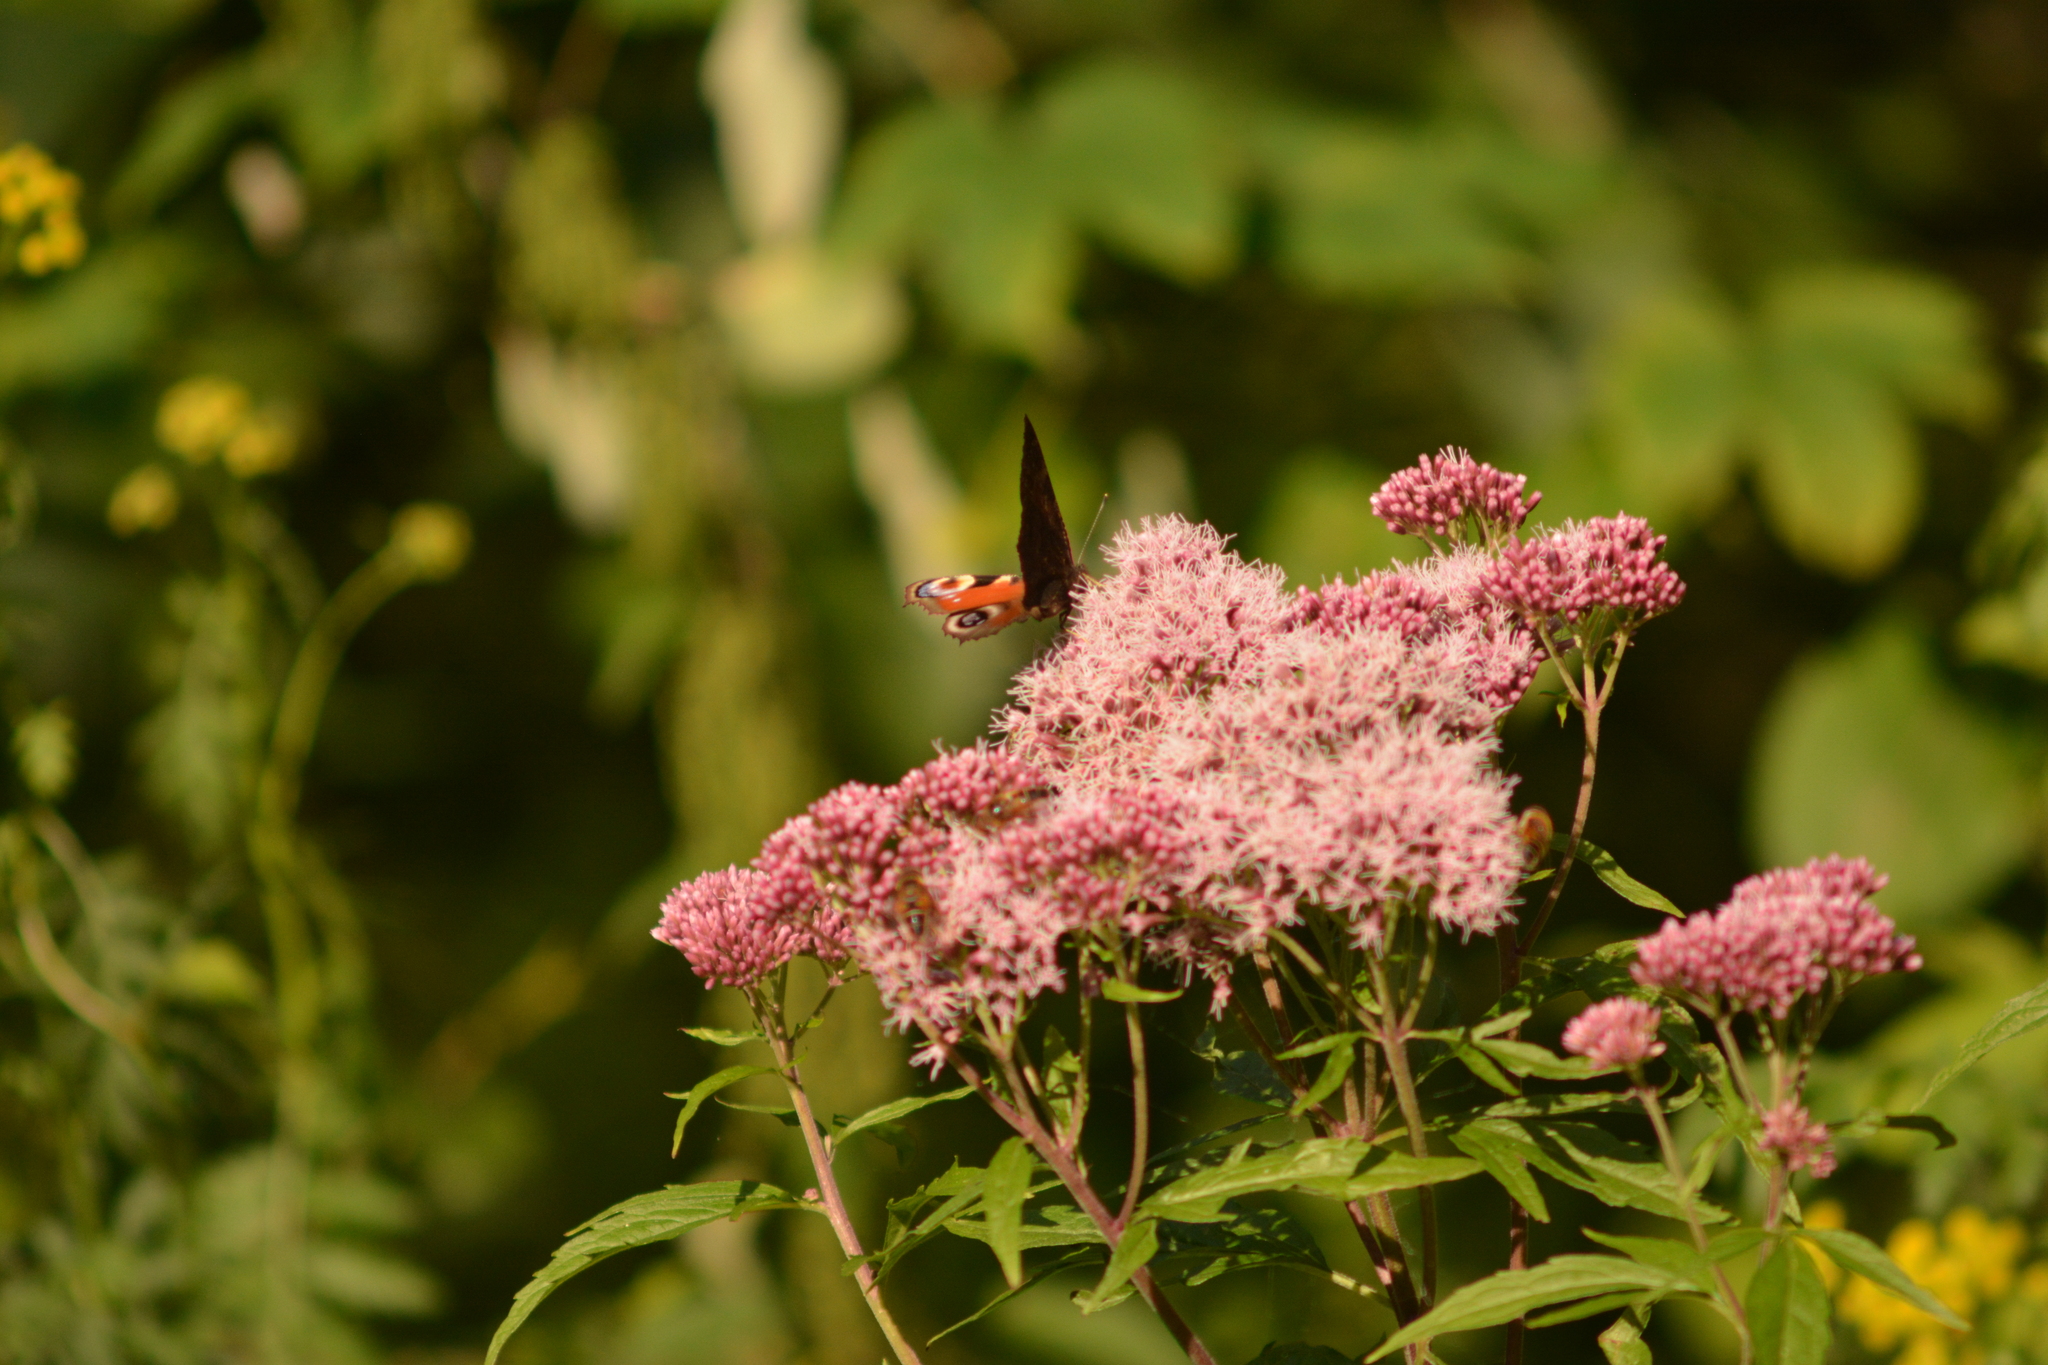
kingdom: Animalia
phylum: Arthropoda
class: Insecta
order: Lepidoptera
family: Nymphalidae
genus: Aglais
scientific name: Aglais io
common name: Peacock
